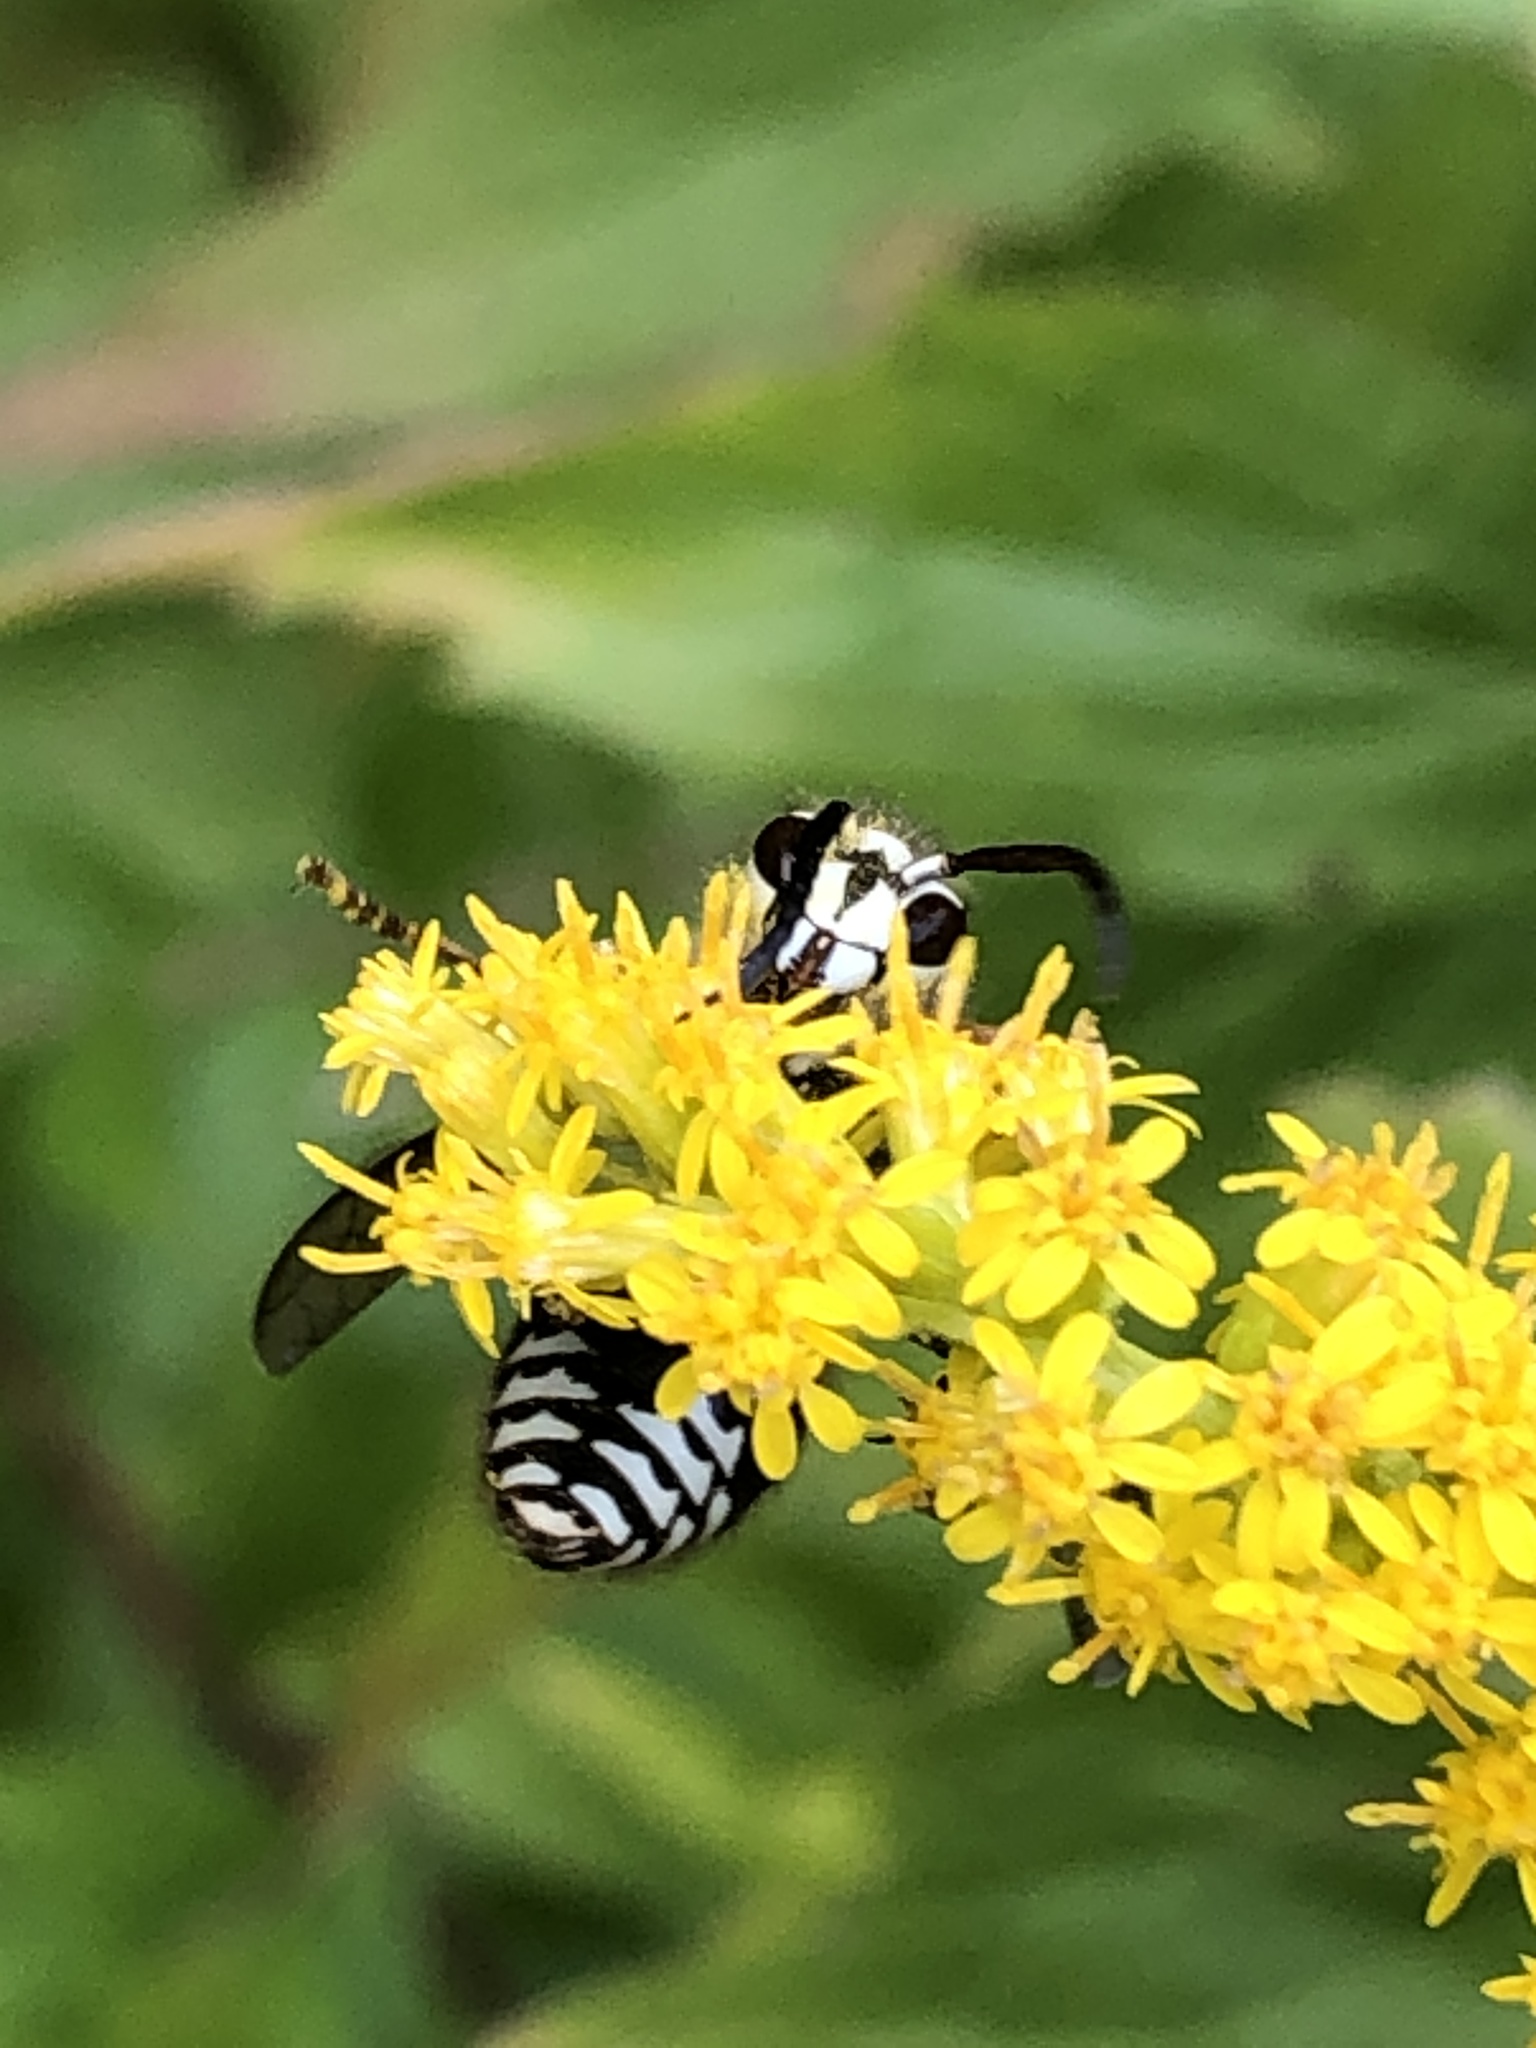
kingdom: Animalia
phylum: Arthropoda
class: Insecta
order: Hymenoptera
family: Vespidae
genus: Dolichovespula
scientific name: Dolichovespula maculata
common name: Bald-faced hornet
